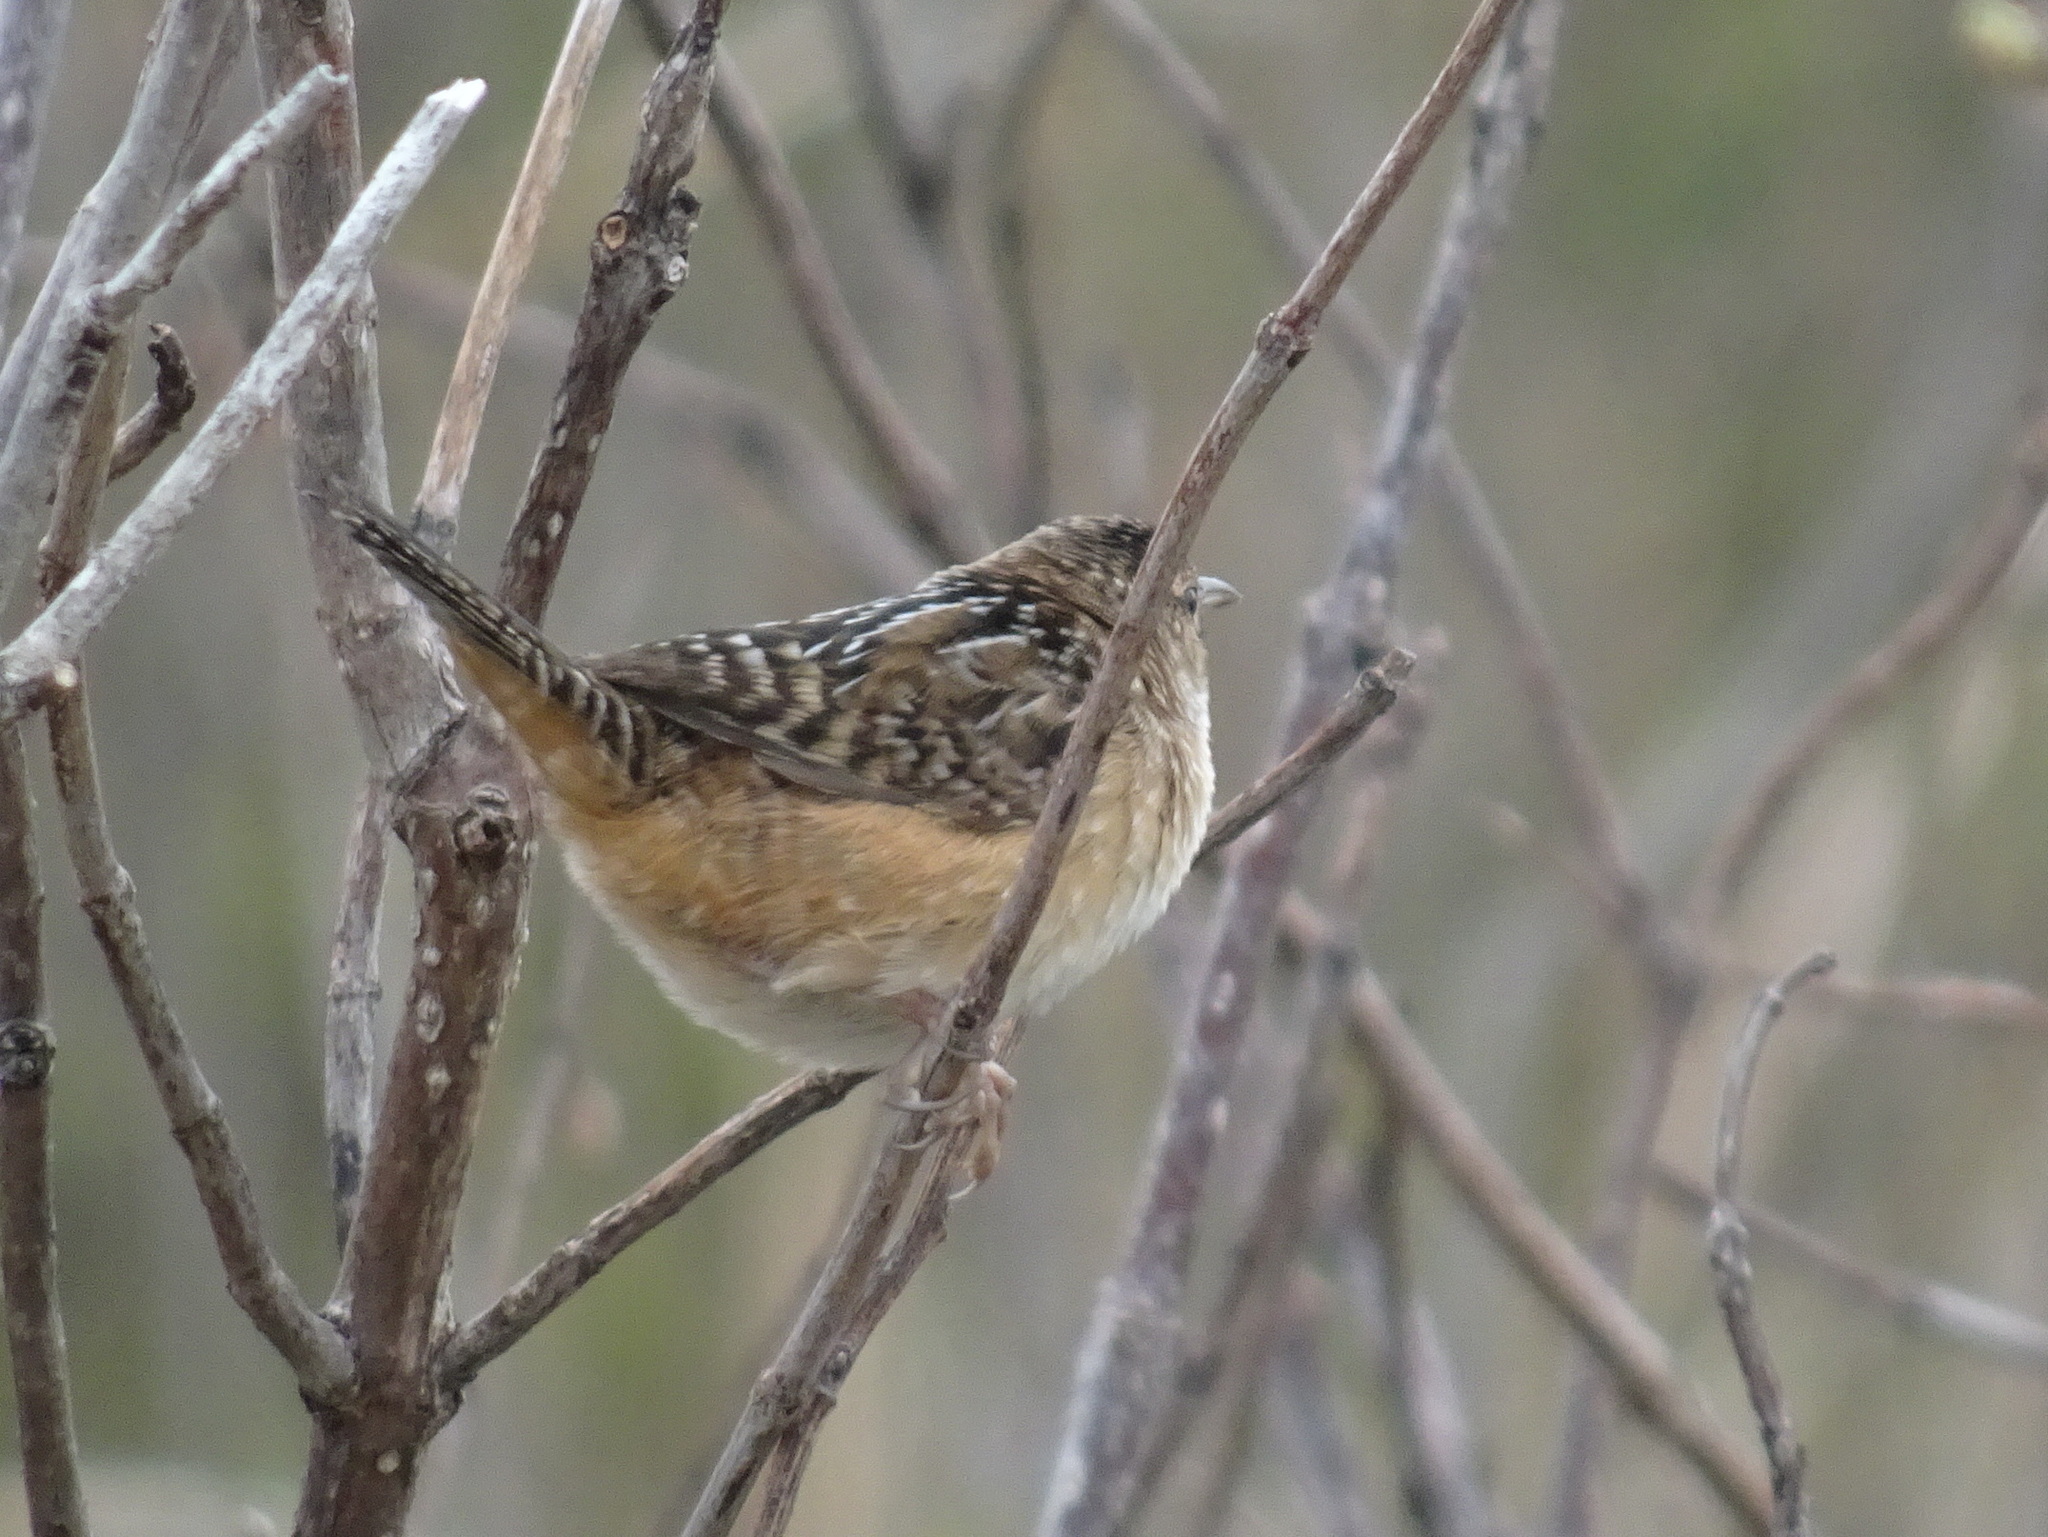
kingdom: Animalia
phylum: Chordata
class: Aves
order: Passeriformes
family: Troglodytidae
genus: Cistothorus
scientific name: Cistothorus platensis
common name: Sedge wren
